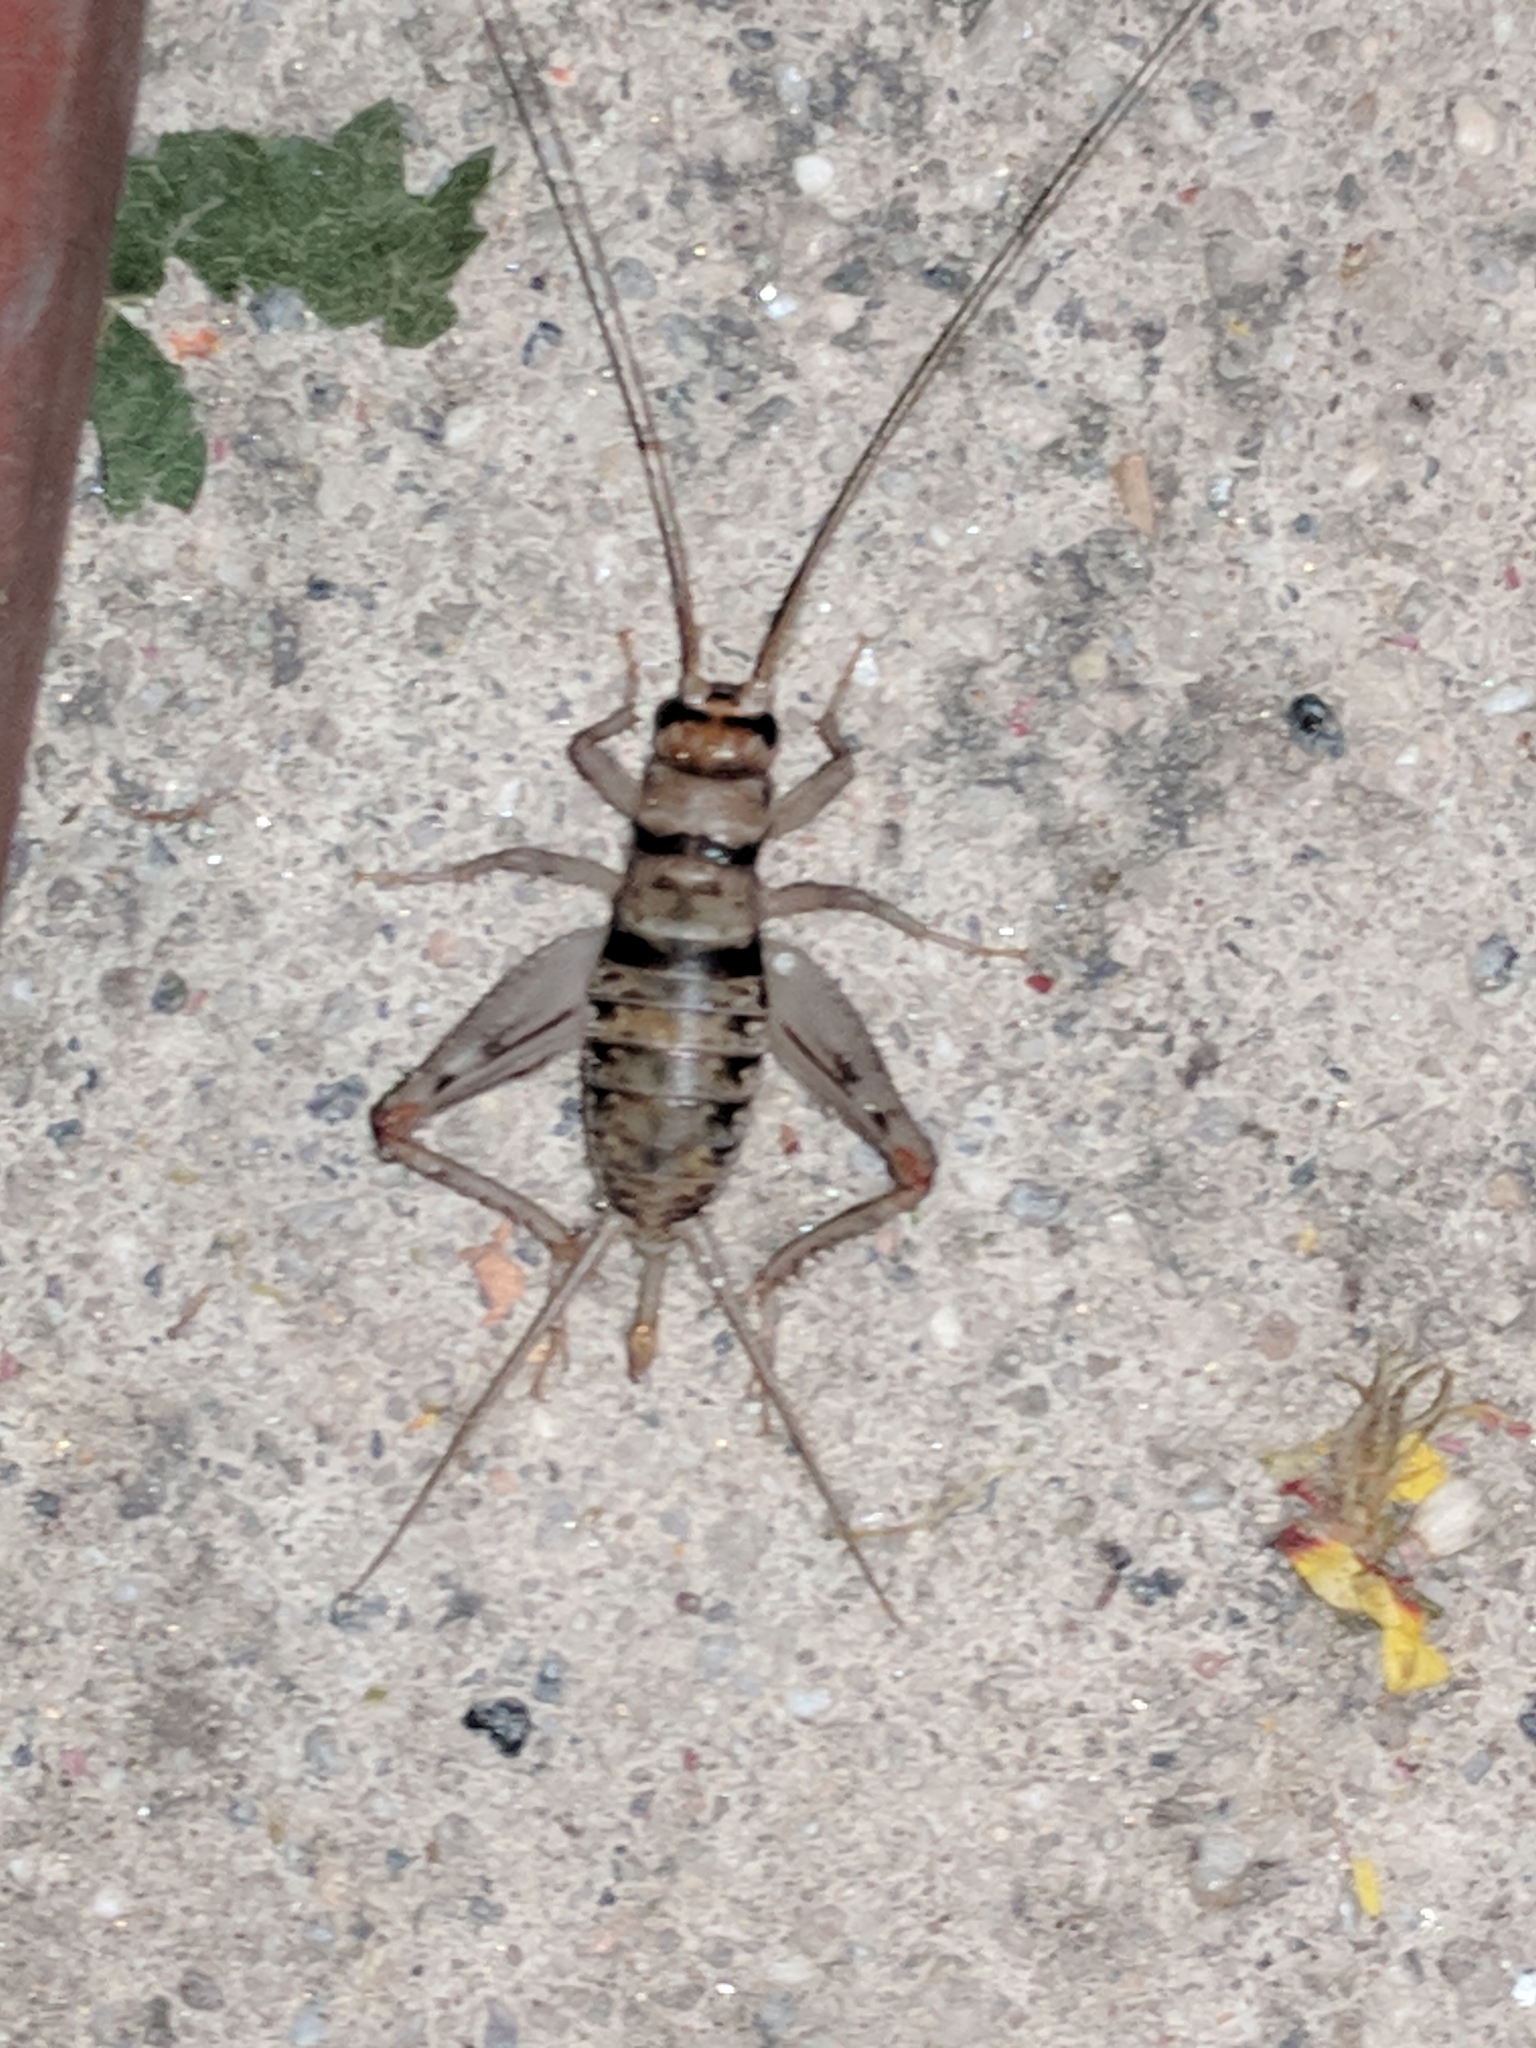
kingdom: Animalia
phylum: Arthropoda
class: Insecta
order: Orthoptera
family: Gryllidae
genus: Gryllodes
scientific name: Gryllodes sigillatus
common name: Tropical house cricket
